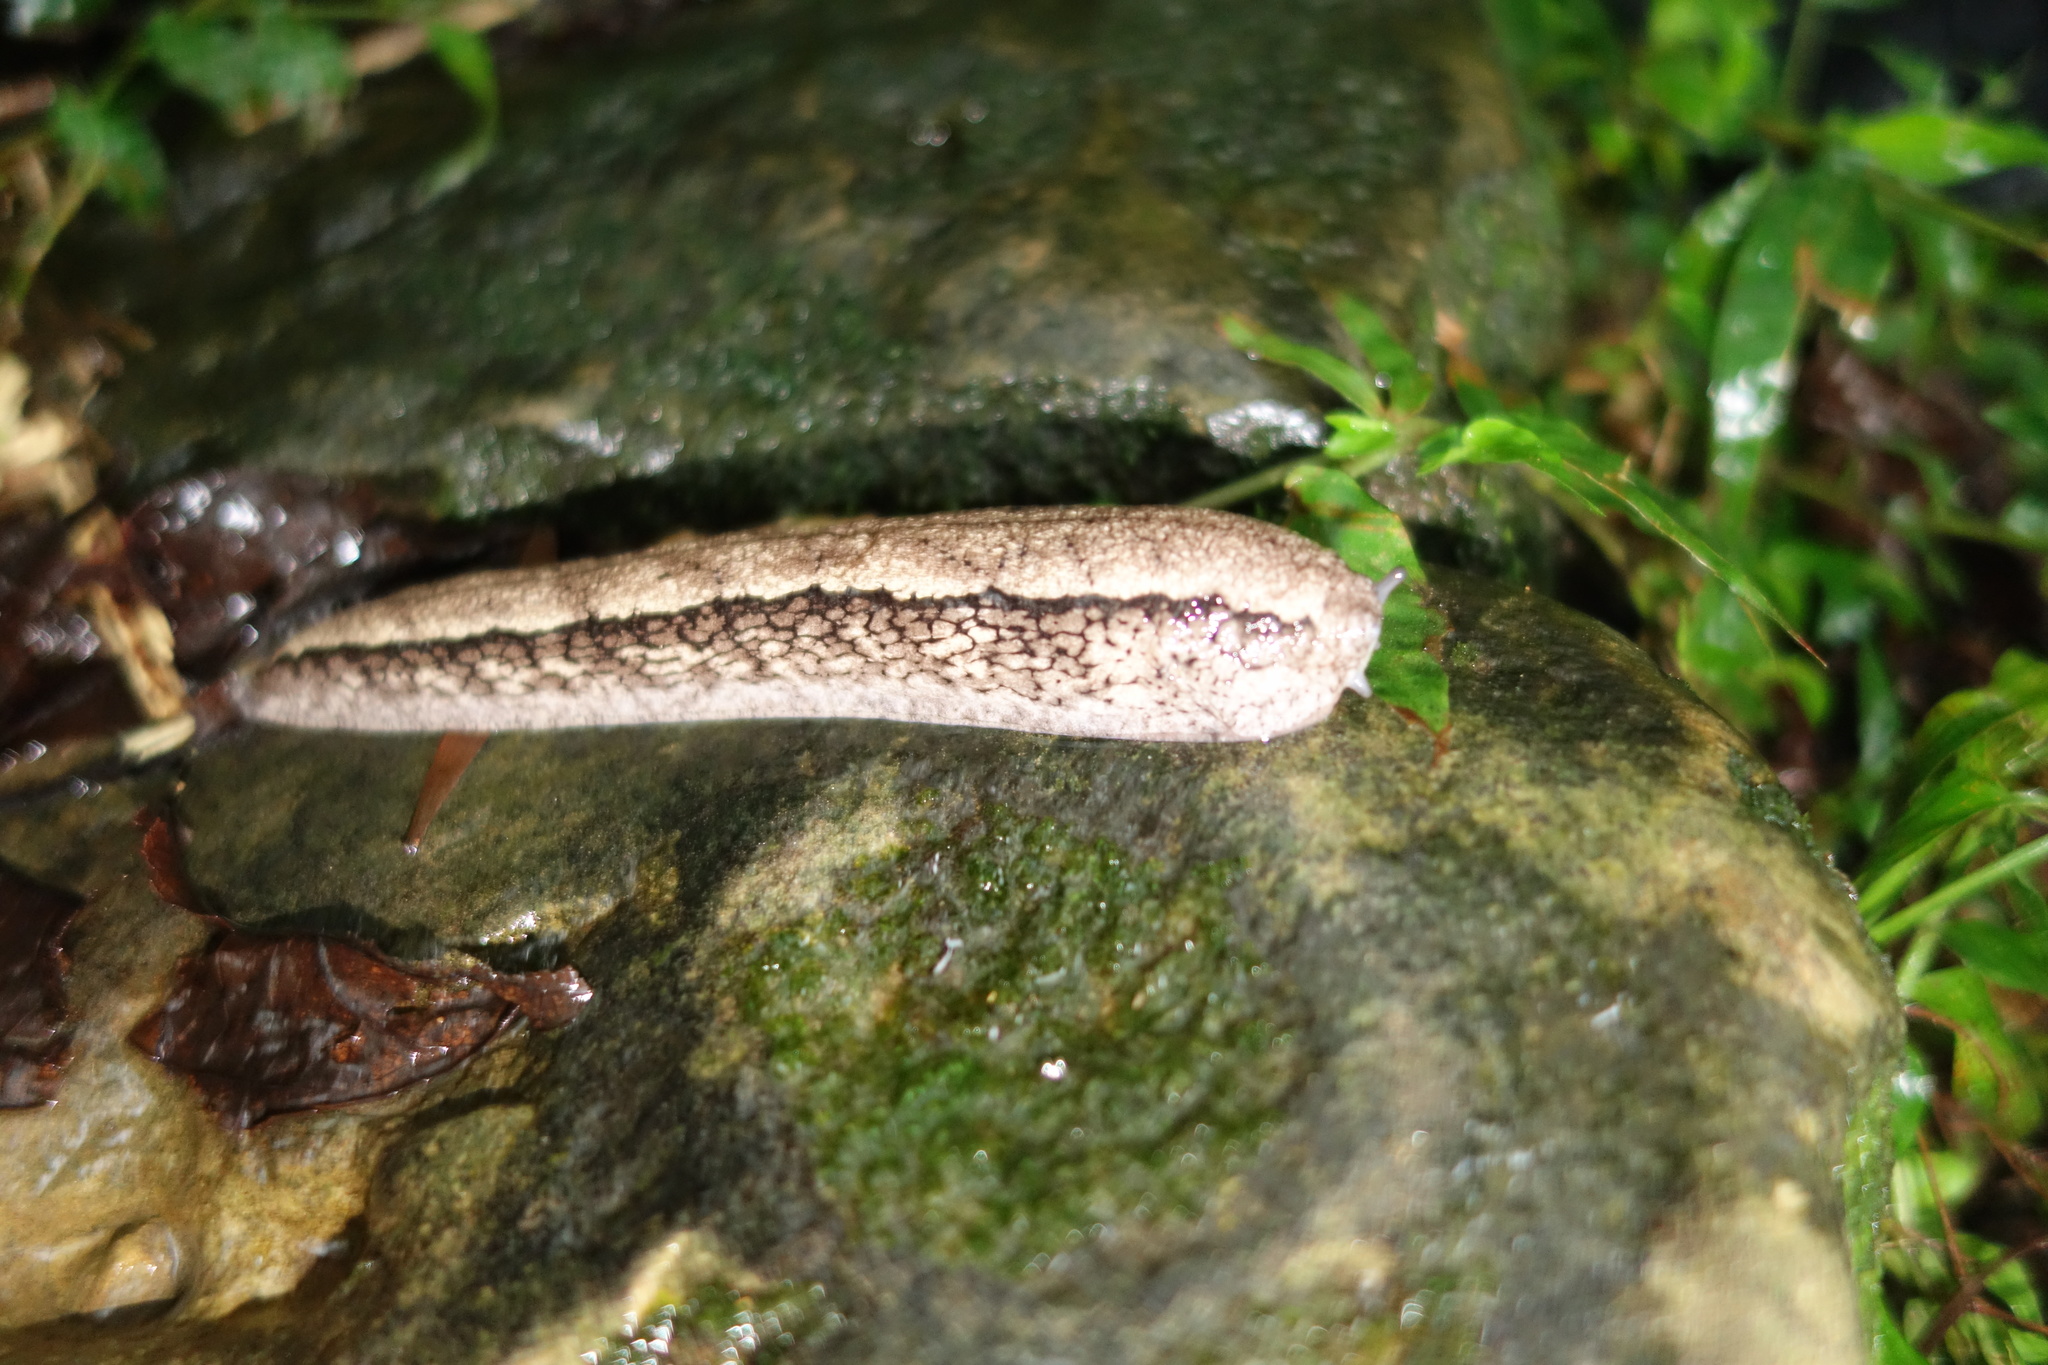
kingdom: Animalia
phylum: Mollusca
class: Gastropoda
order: Stylommatophora
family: Philomycidae
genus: Meghimatium
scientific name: Meghimatium fruhstorferi
